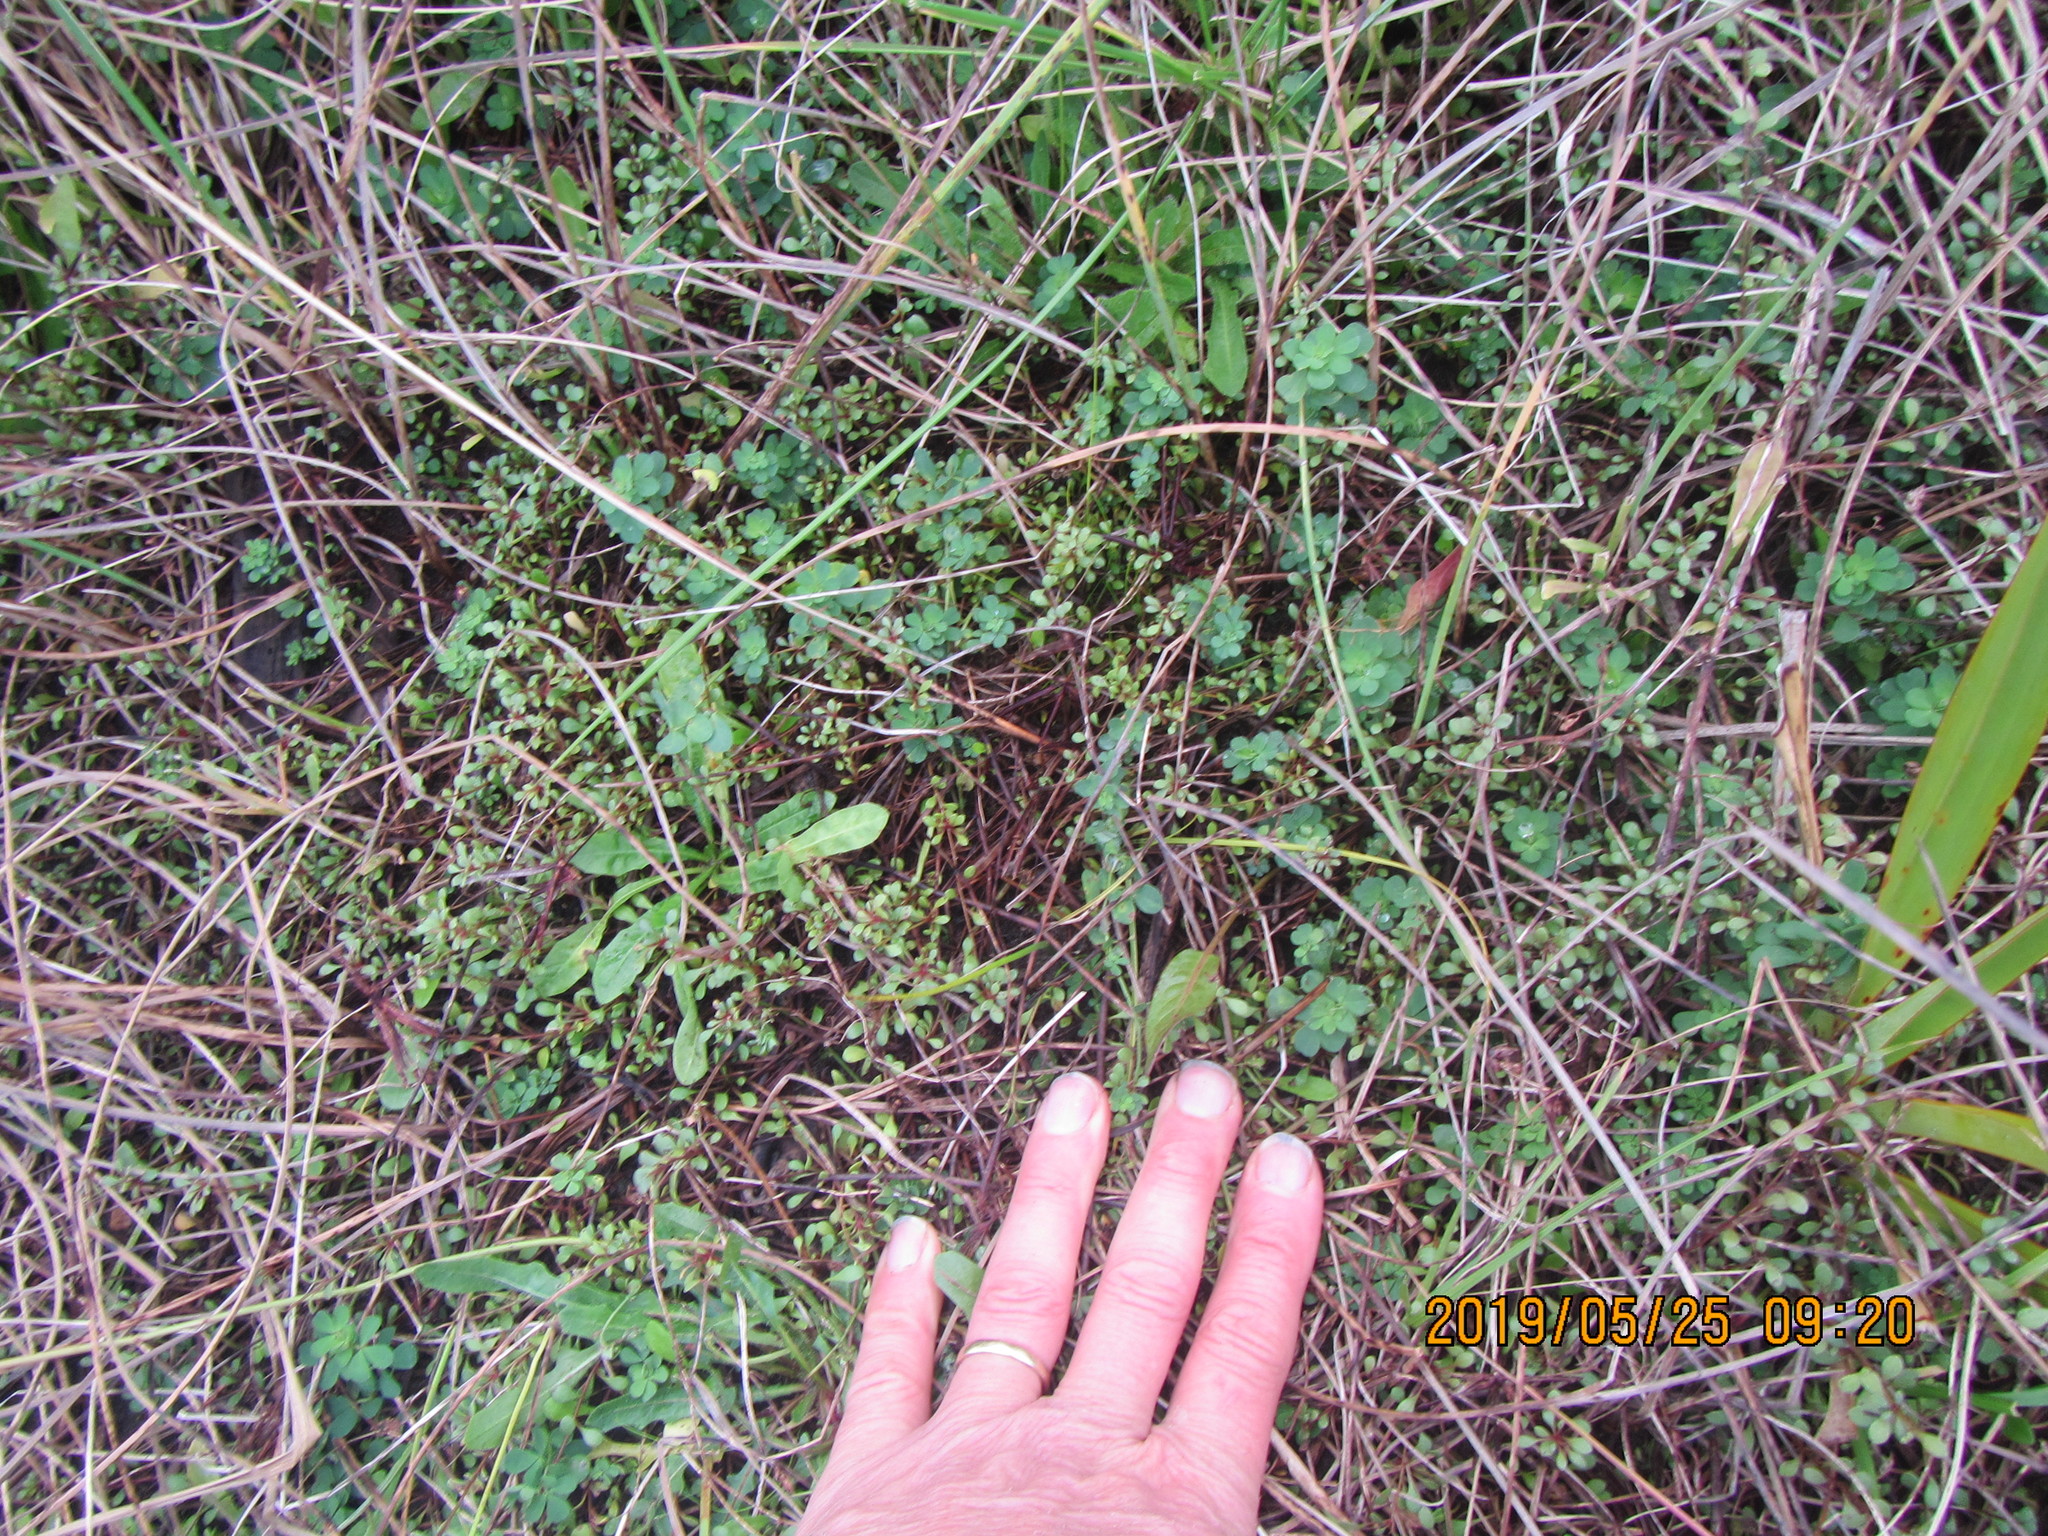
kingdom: Plantae
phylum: Tracheophyta
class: Magnoliopsida
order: Ericales
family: Primulaceae
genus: Samolus
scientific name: Samolus repens
